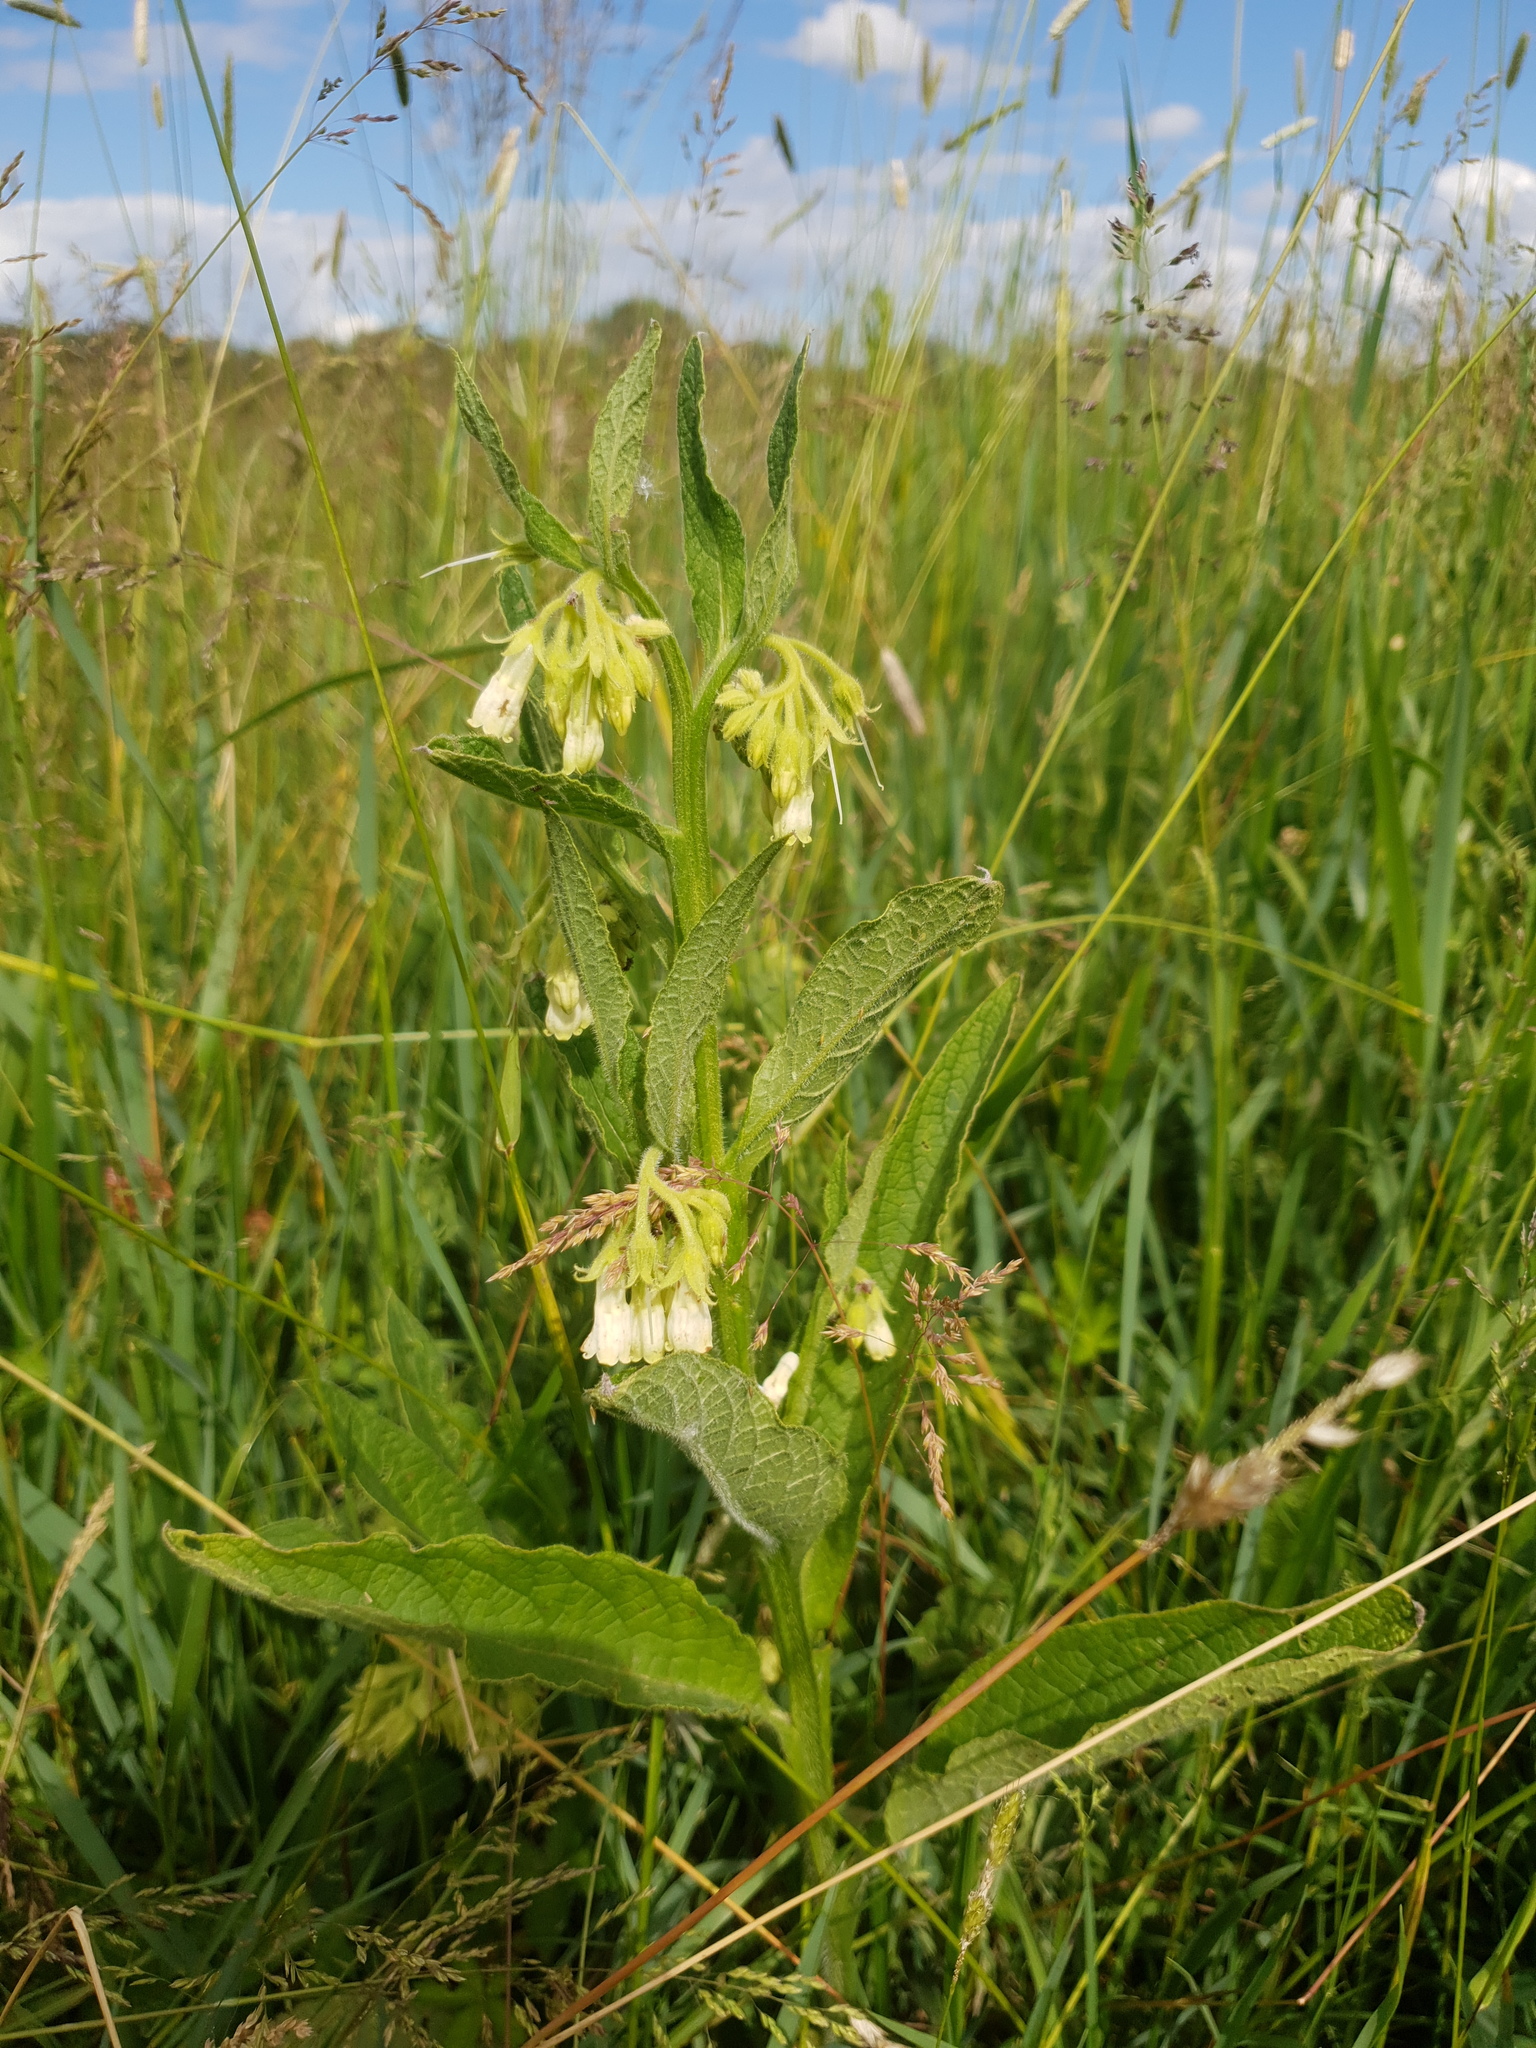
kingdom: Plantae
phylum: Tracheophyta
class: Magnoliopsida
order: Boraginales
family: Boraginaceae
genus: Symphytum
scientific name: Symphytum bohemicum
